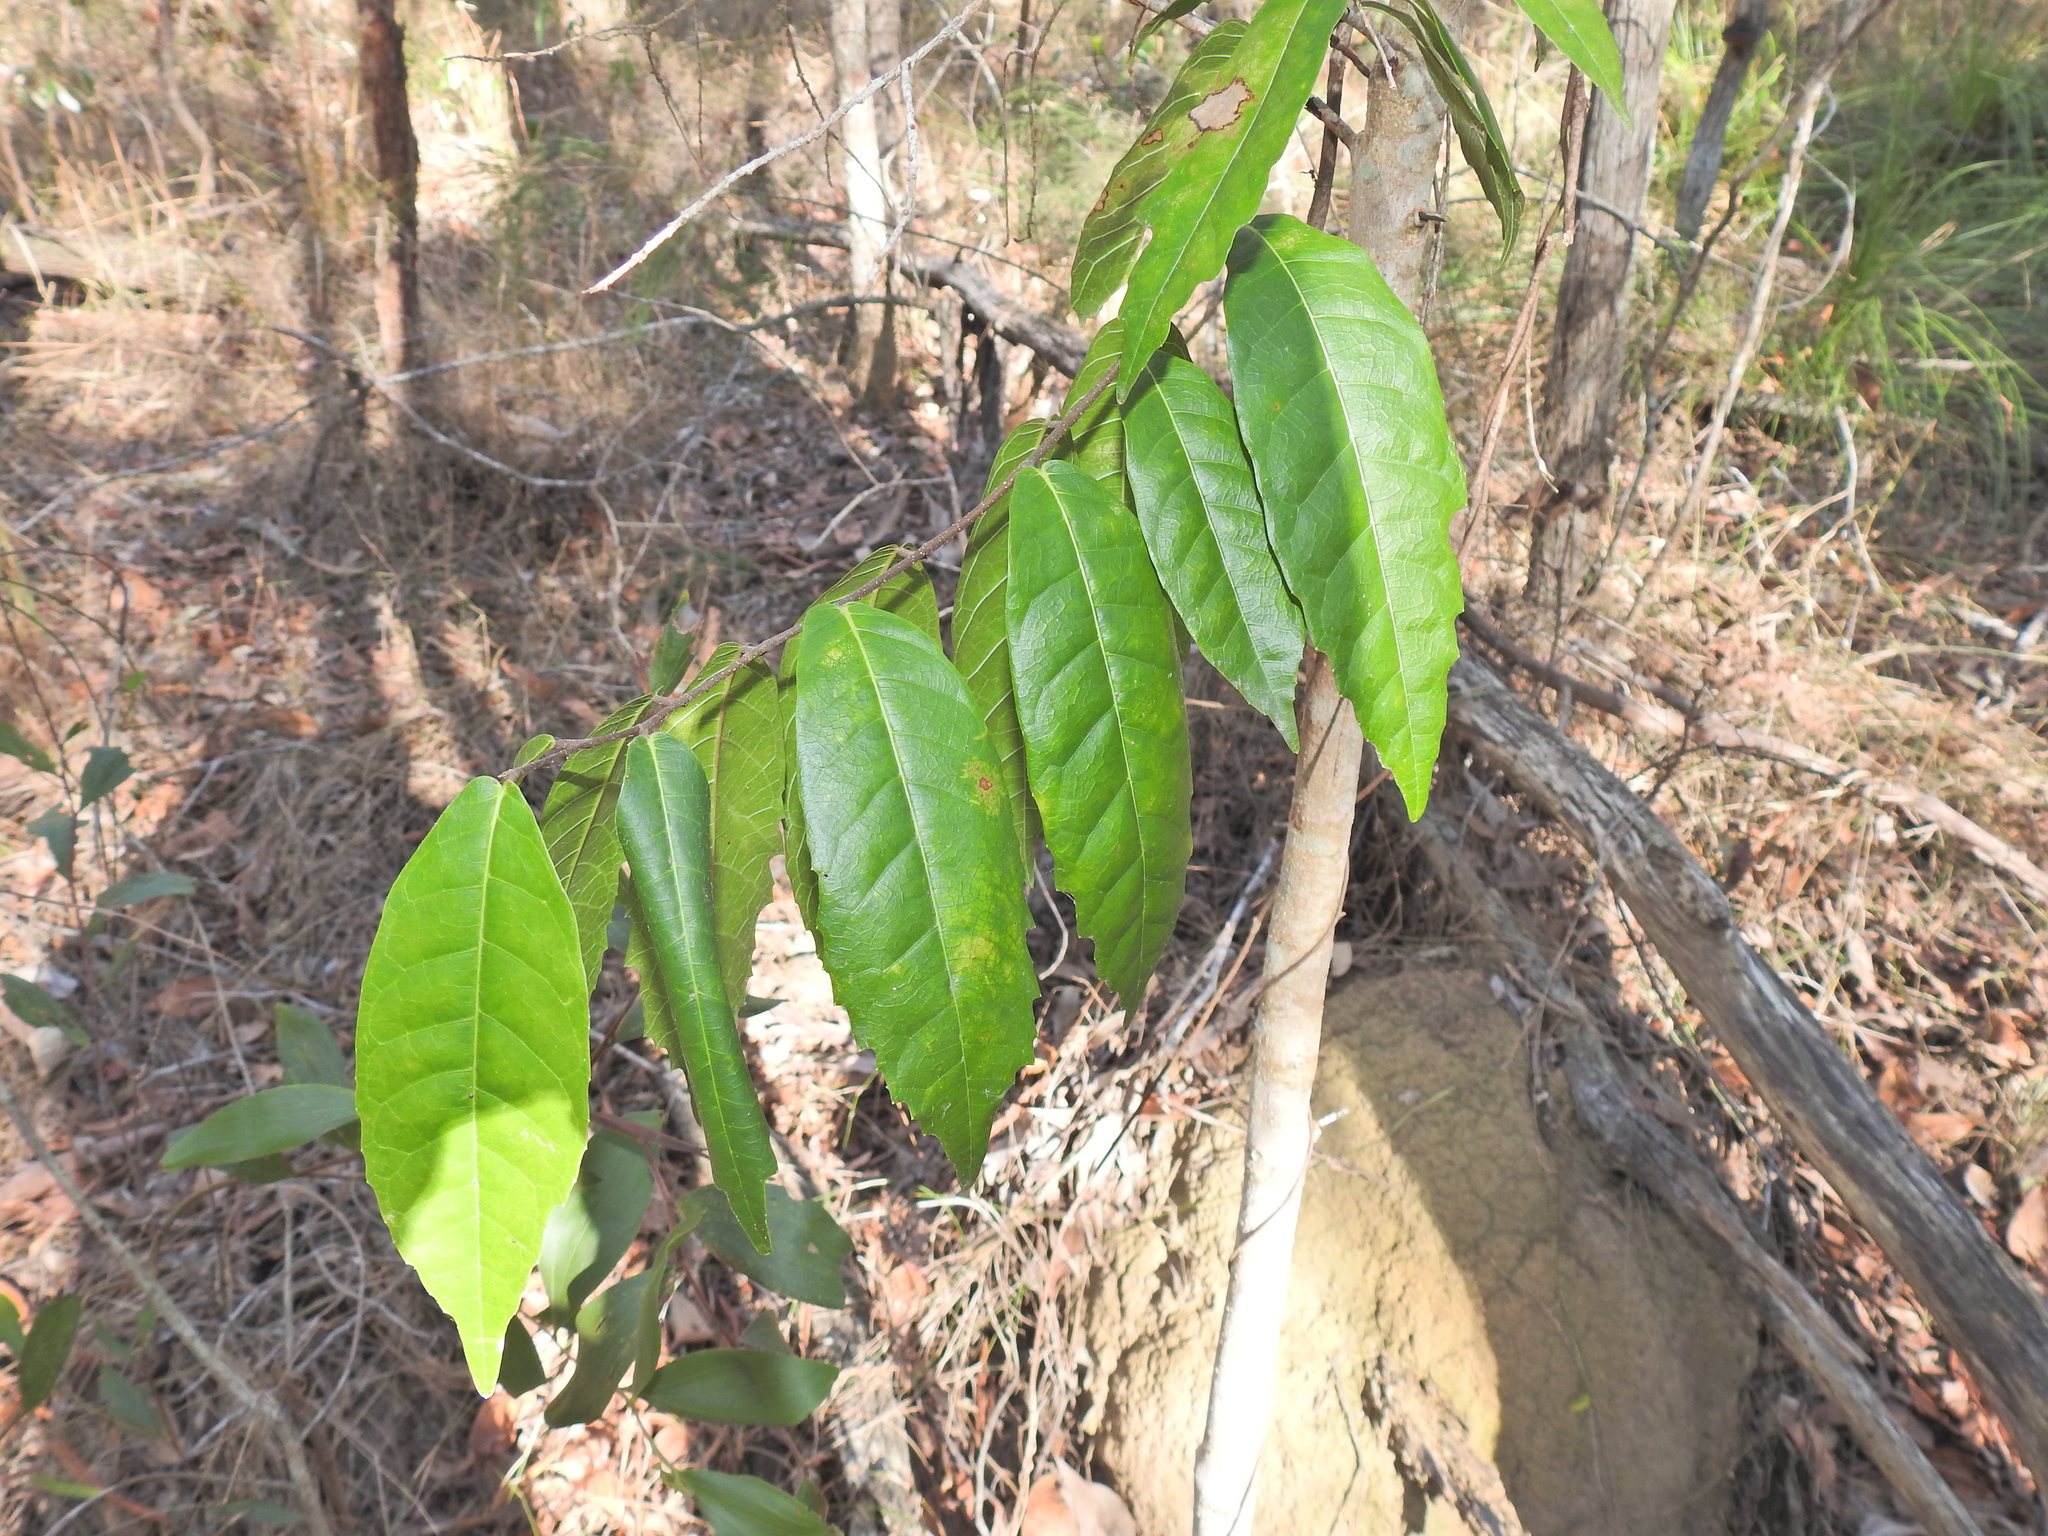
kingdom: Plantae
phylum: Tracheophyta
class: Magnoliopsida
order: Rosales
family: Moraceae
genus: Malaisia
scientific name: Malaisia scandens
